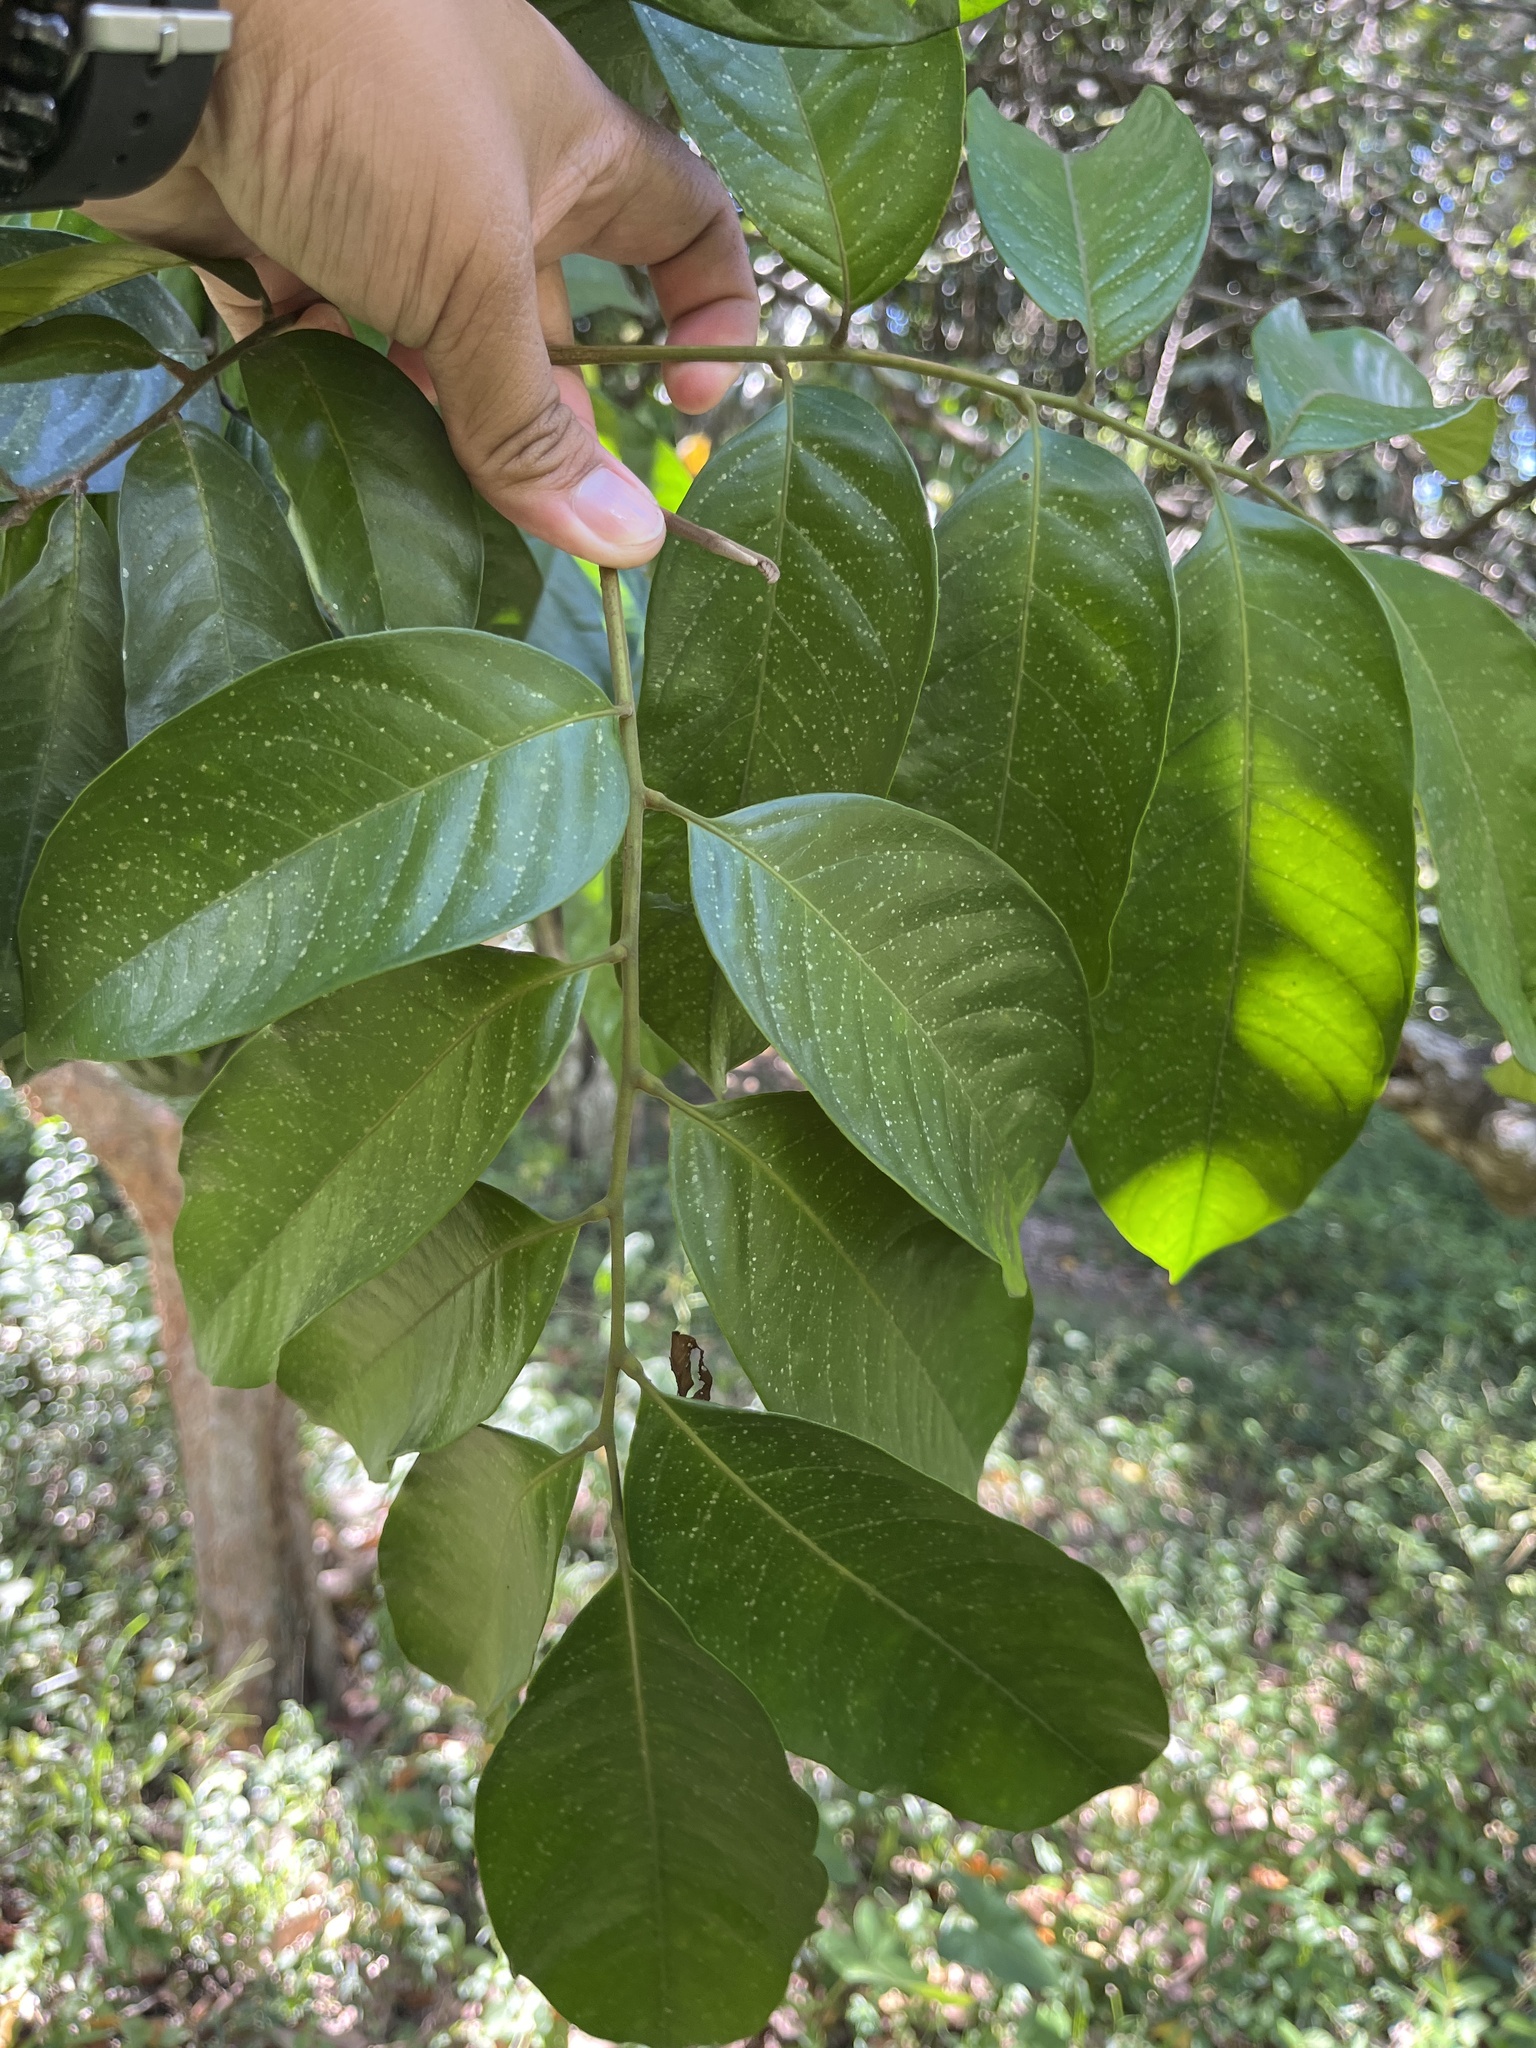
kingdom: Plantae
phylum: Tracheophyta
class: Magnoliopsida
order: Myrtales
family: Myrtaceae
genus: Psidium
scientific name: Psidium guajava
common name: Guava
